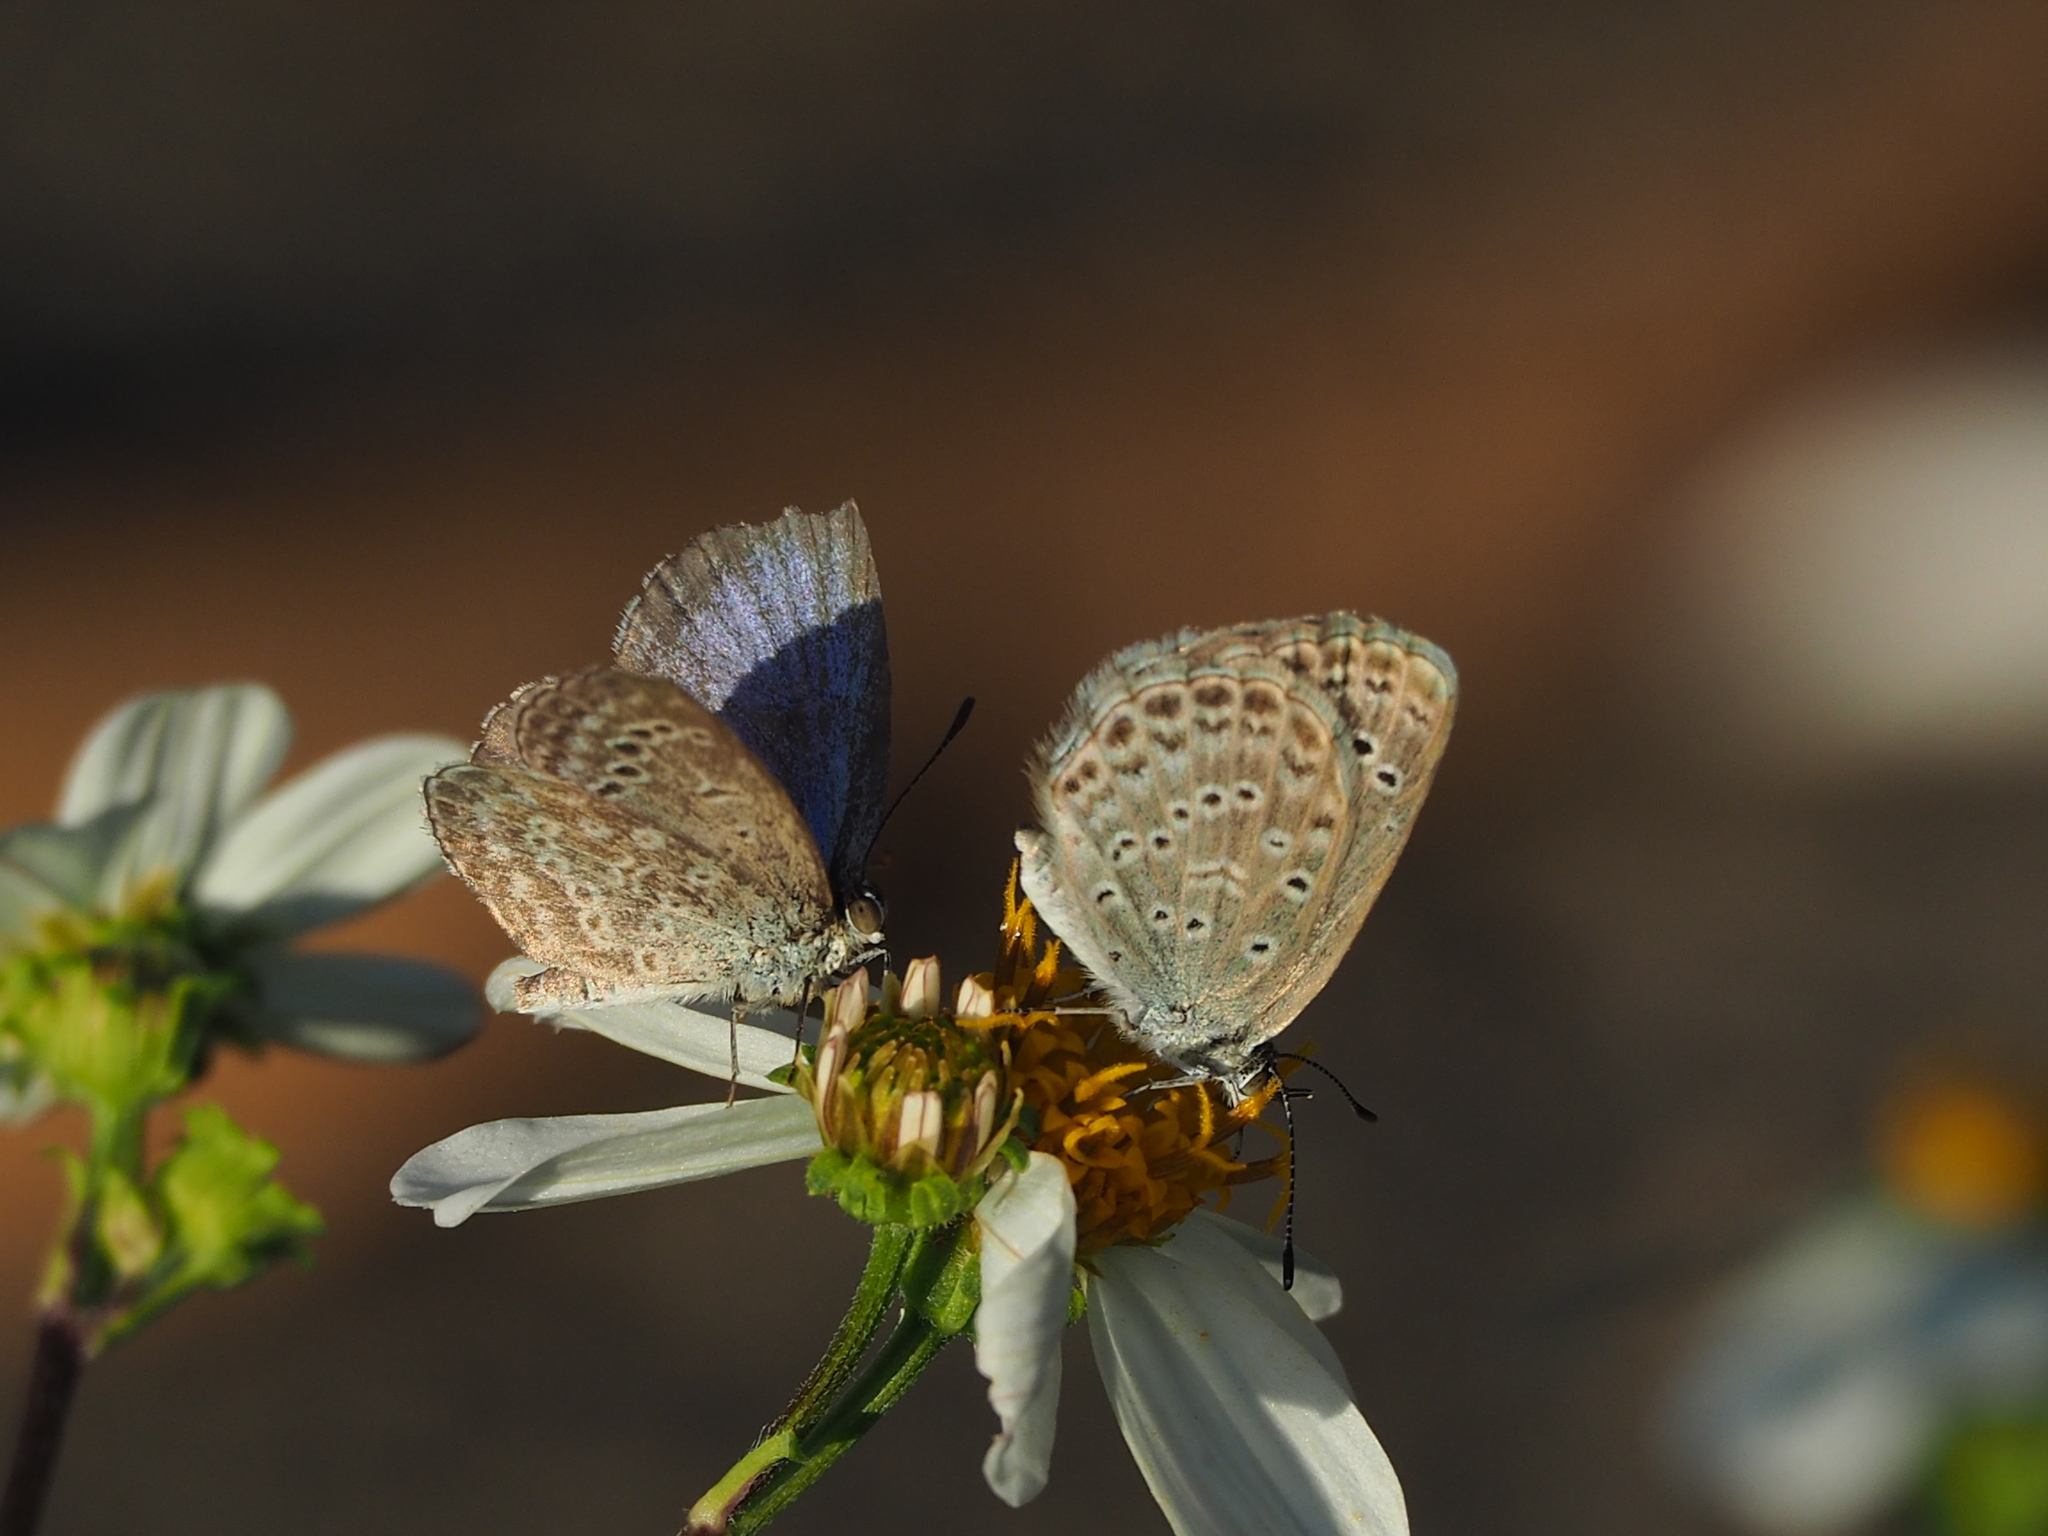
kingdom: Animalia
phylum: Arthropoda
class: Insecta
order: Lepidoptera
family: Lycaenidae
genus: Pseudozizeeria
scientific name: Pseudozizeeria maha
